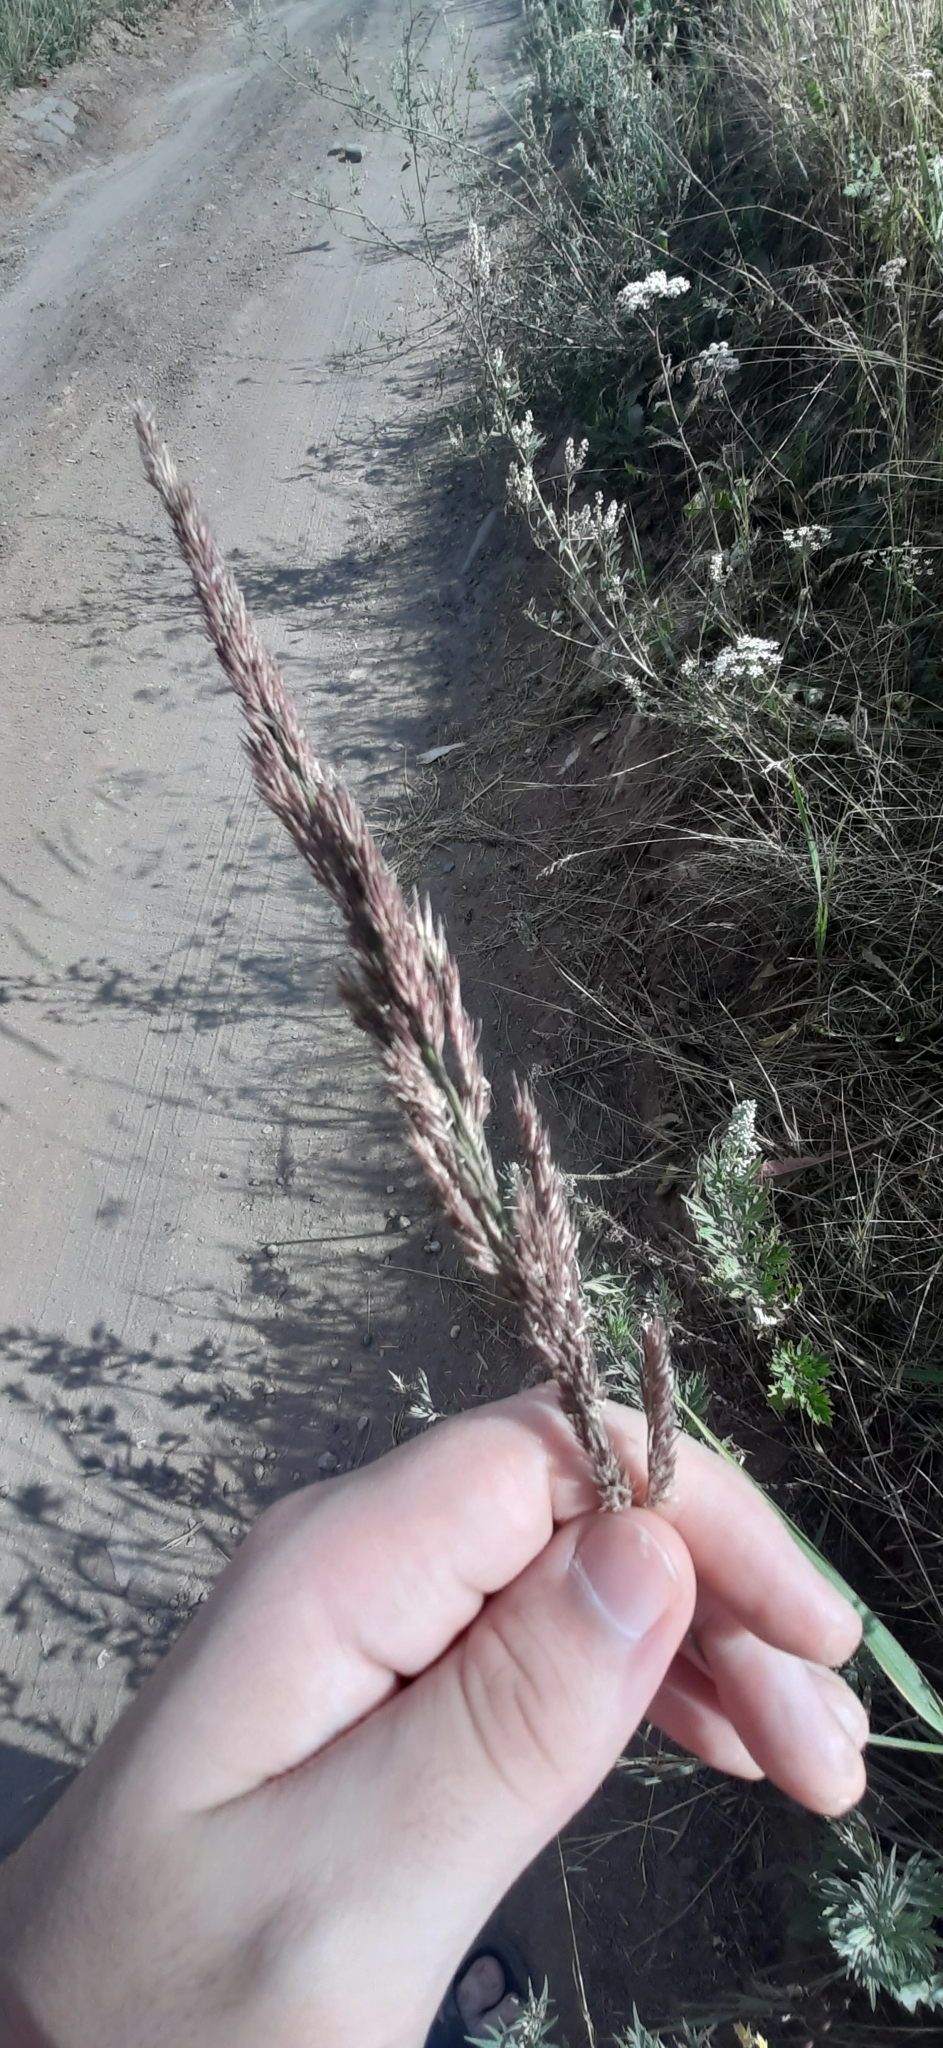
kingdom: Plantae
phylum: Tracheophyta
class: Liliopsida
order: Poales
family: Poaceae
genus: Calamagrostis
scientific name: Calamagrostis epigejos
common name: Wood small-reed
